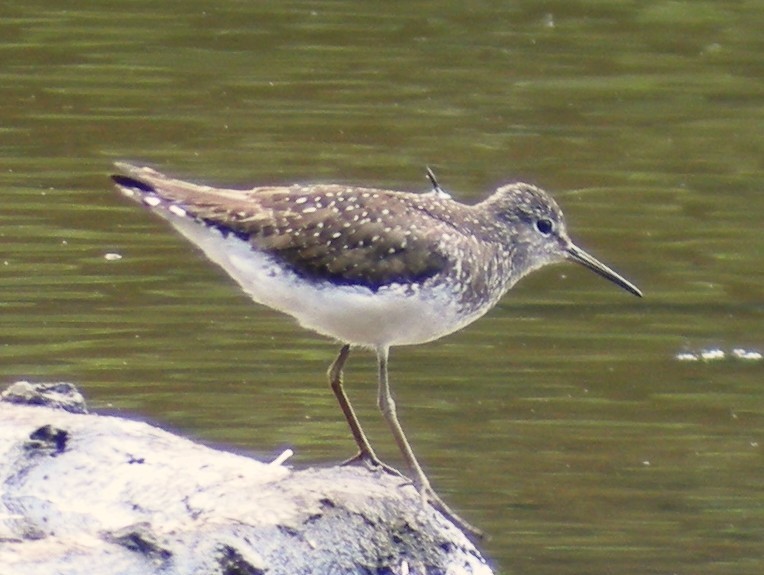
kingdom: Animalia
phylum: Chordata
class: Aves
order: Charadriiformes
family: Scolopacidae
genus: Tringa
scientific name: Tringa solitaria
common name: Solitary sandpiper
